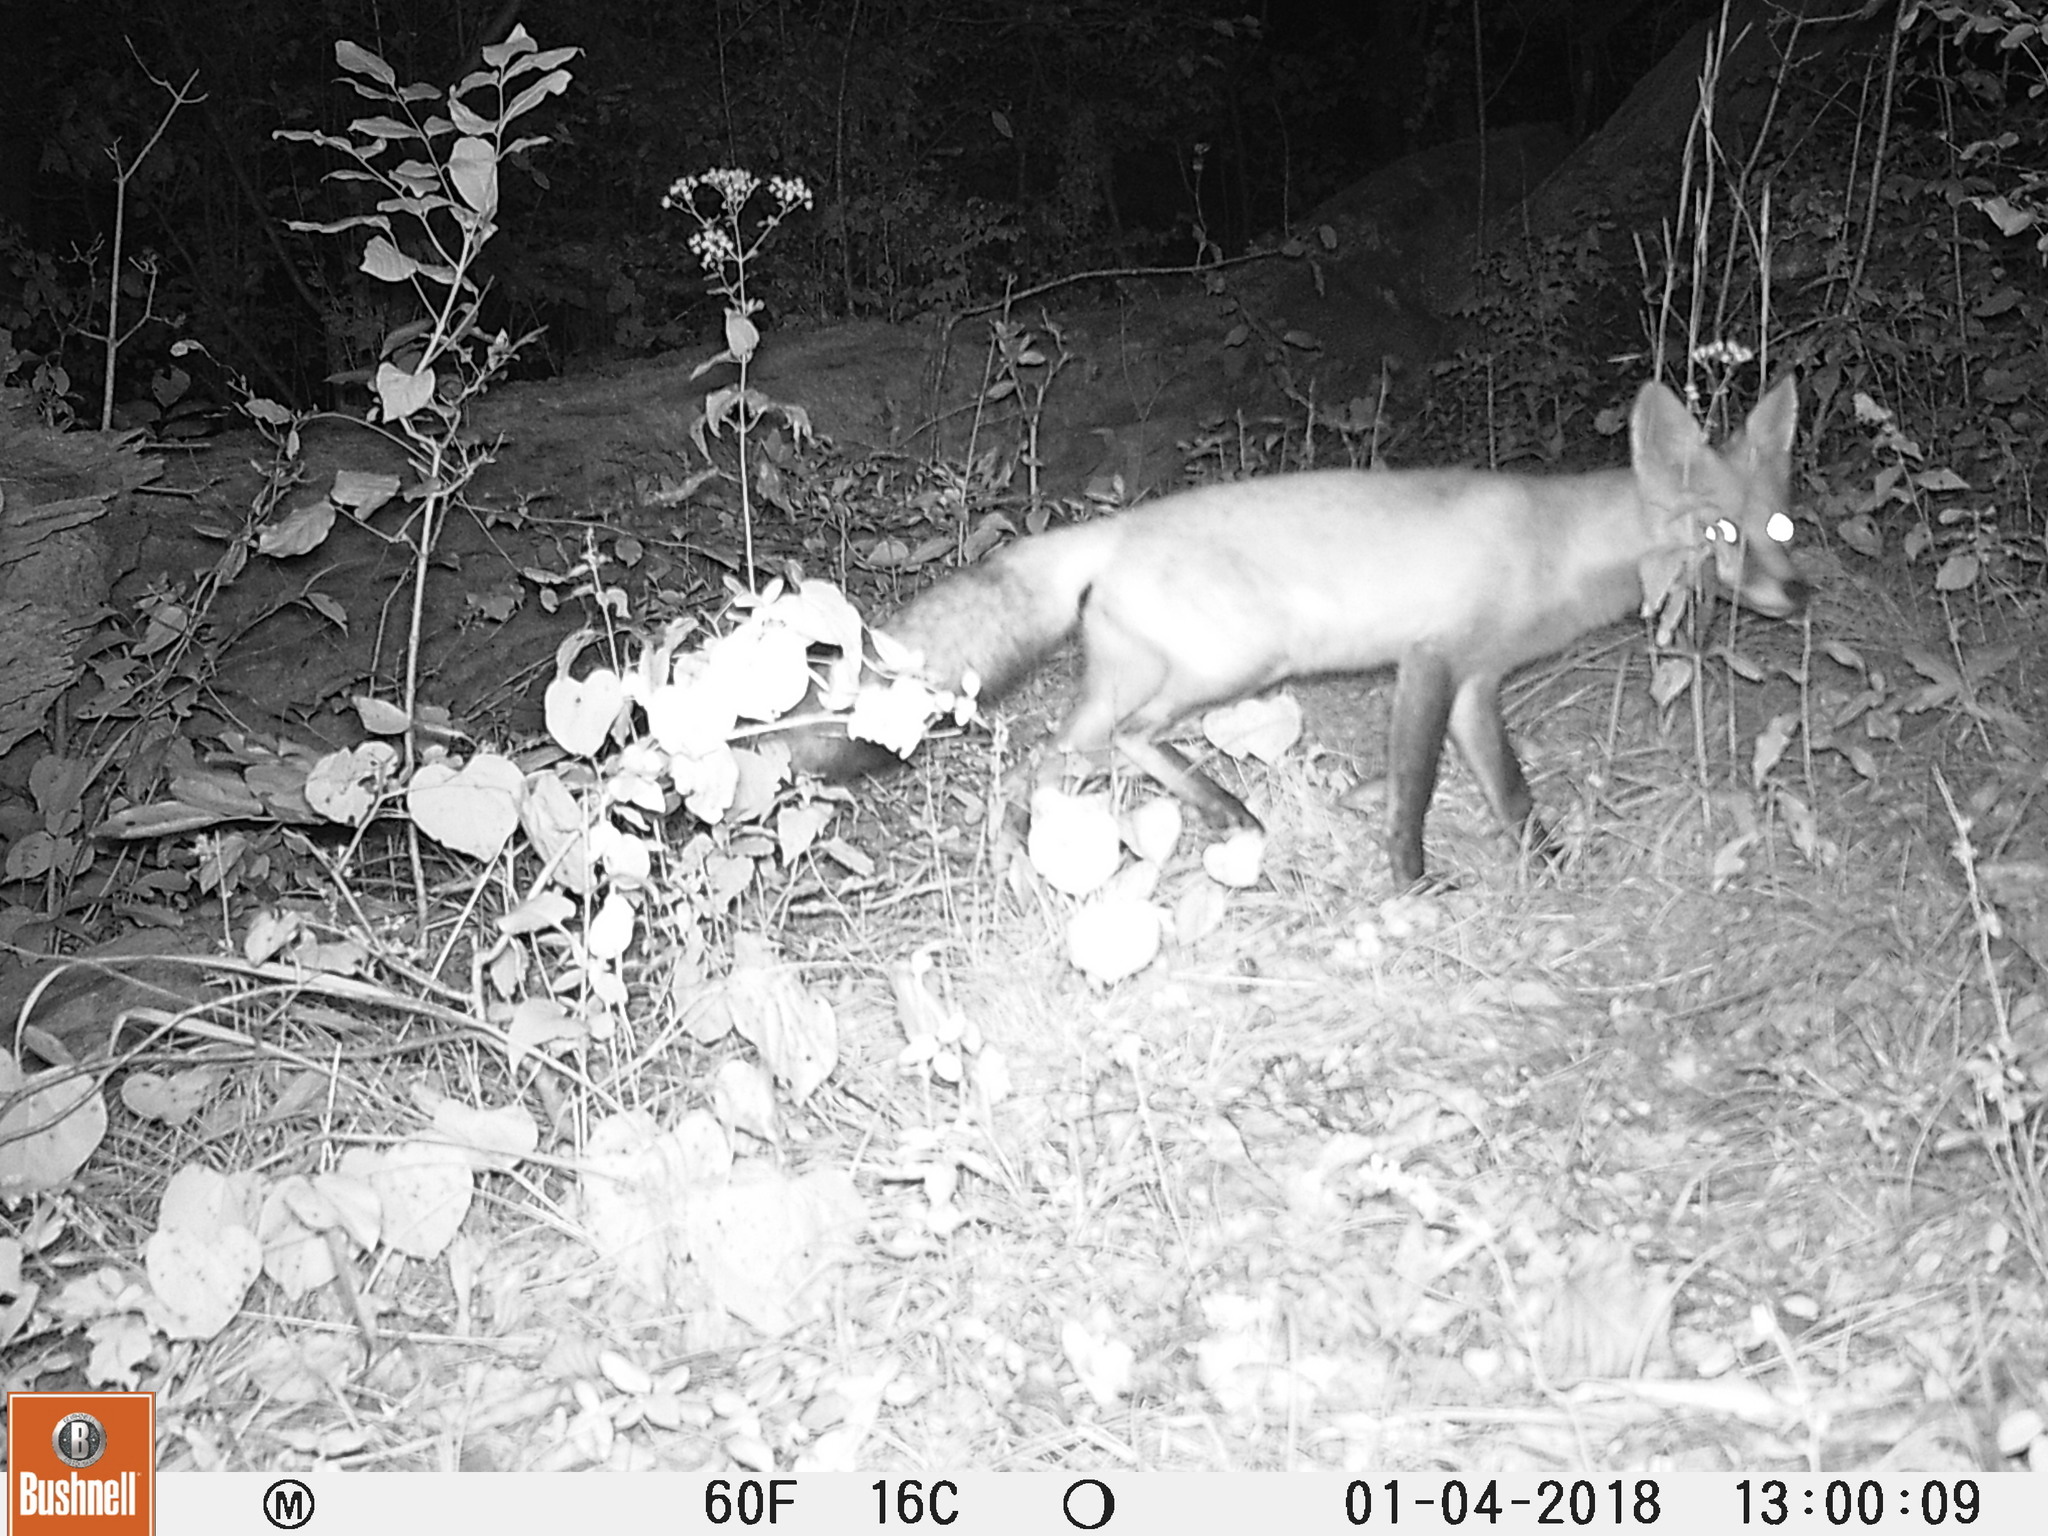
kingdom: Animalia
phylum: Chordata
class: Mammalia
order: Carnivora
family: Canidae
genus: Vulpes
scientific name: Vulpes vulpes
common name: Red fox
